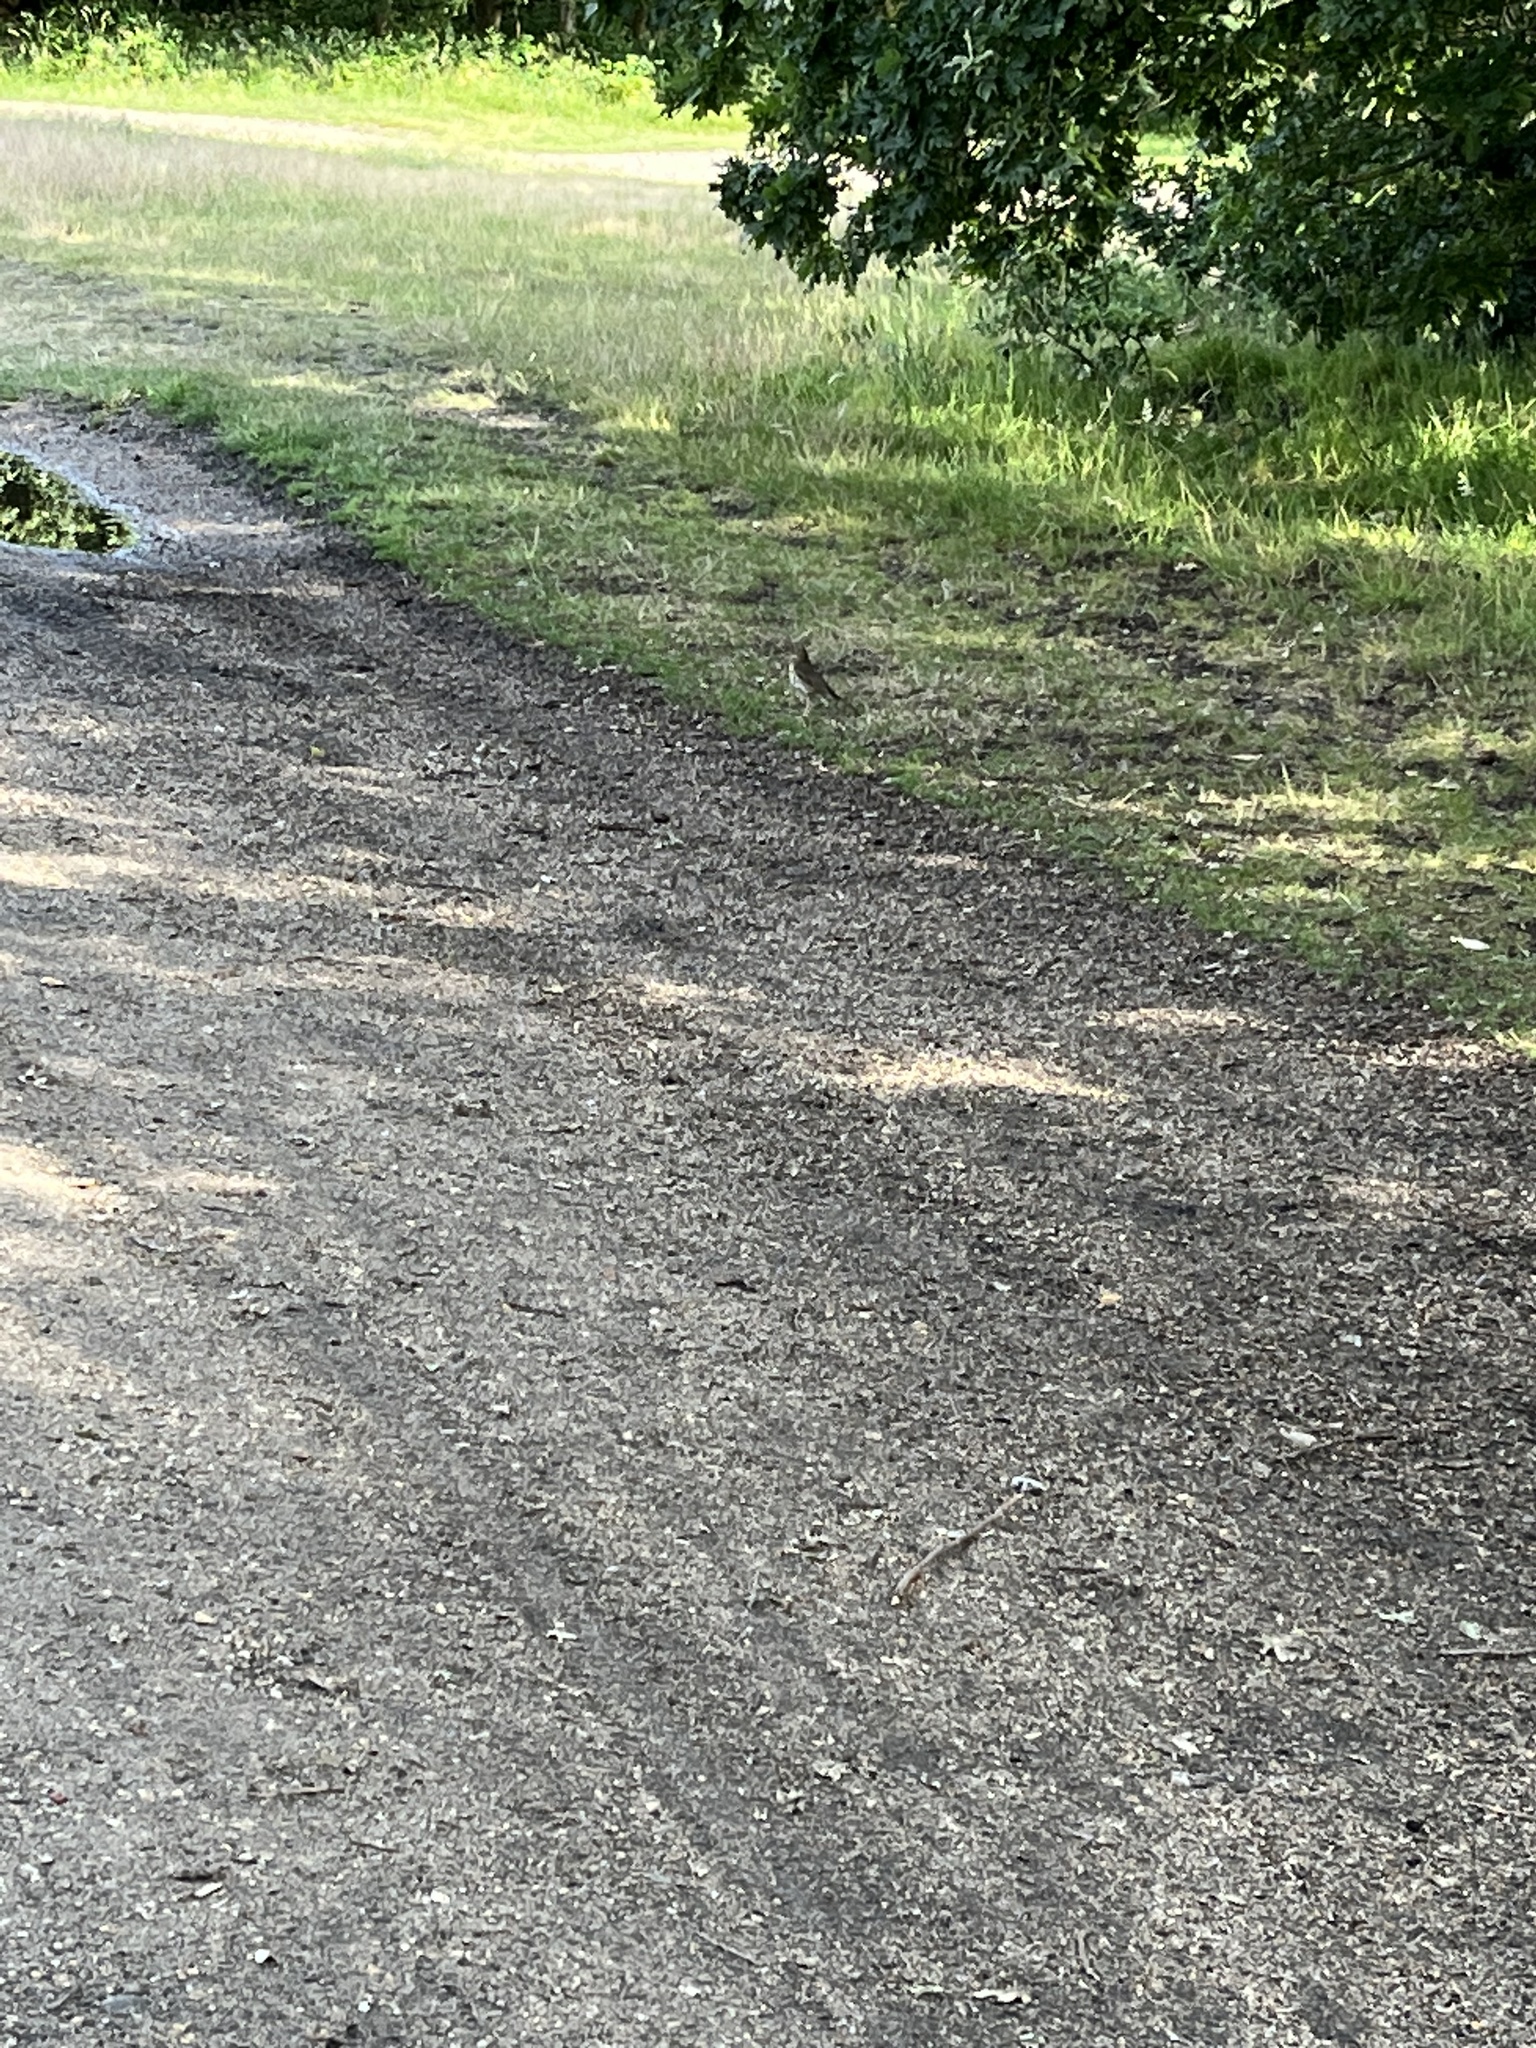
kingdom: Animalia
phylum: Chordata
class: Aves
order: Passeriformes
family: Turdidae
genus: Turdus
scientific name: Turdus philomelos
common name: Song thrush
